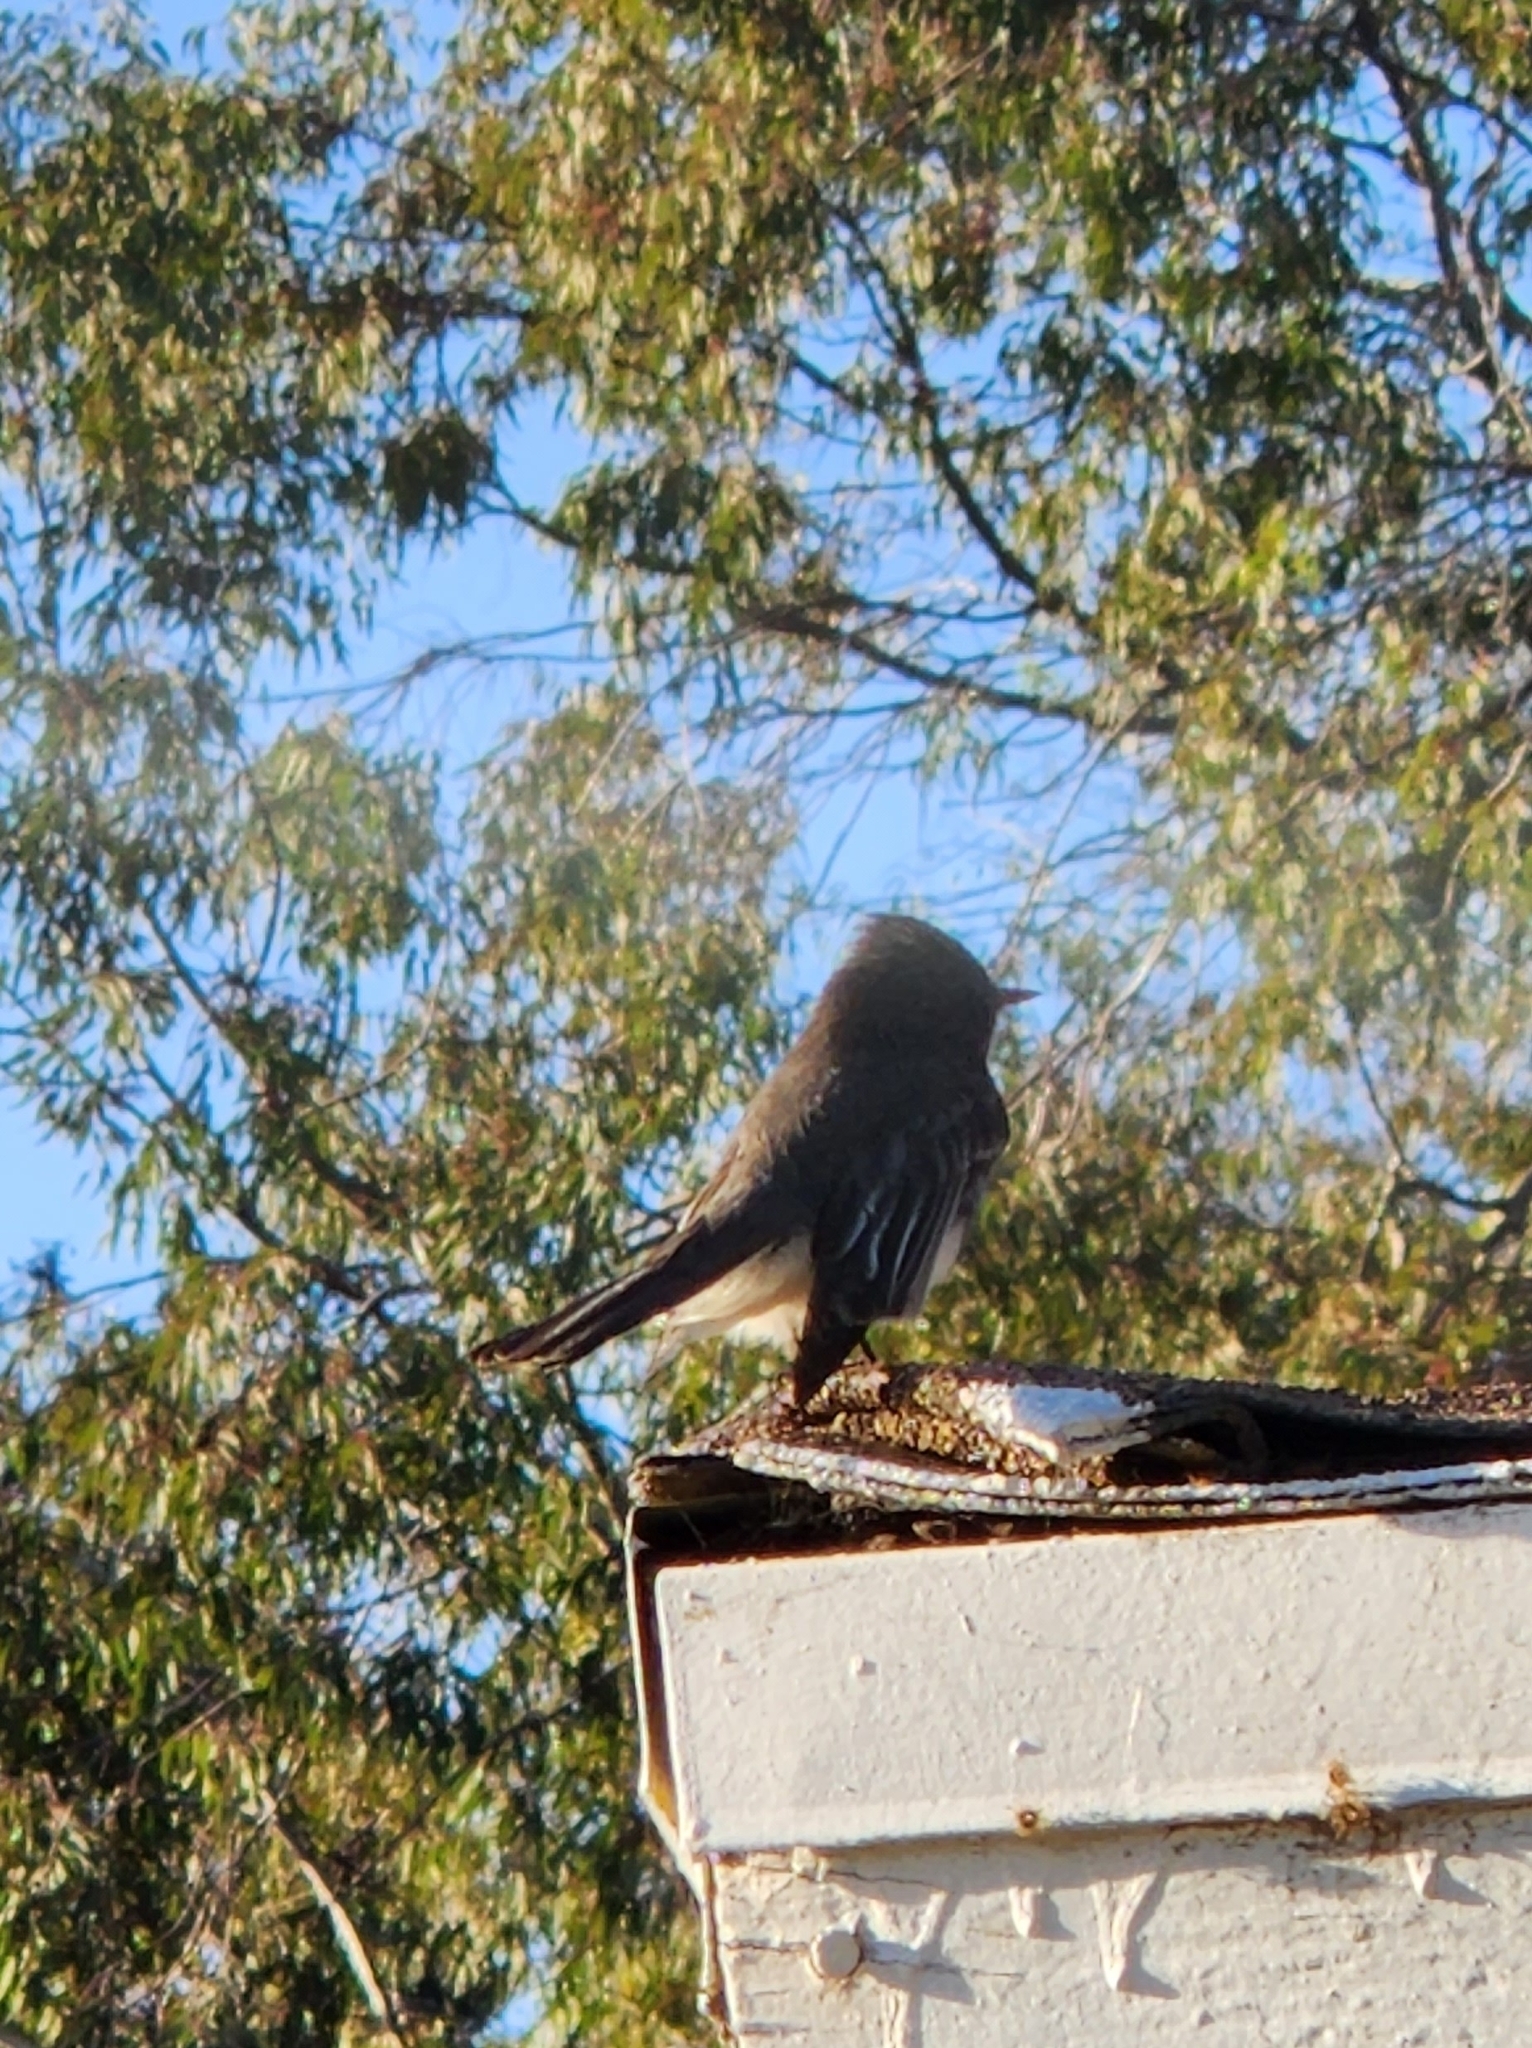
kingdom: Animalia
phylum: Chordata
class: Aves
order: Passeriformes
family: Tyrannidae
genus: Sayornis
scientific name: Sayornis nigricans
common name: Black phoebe
